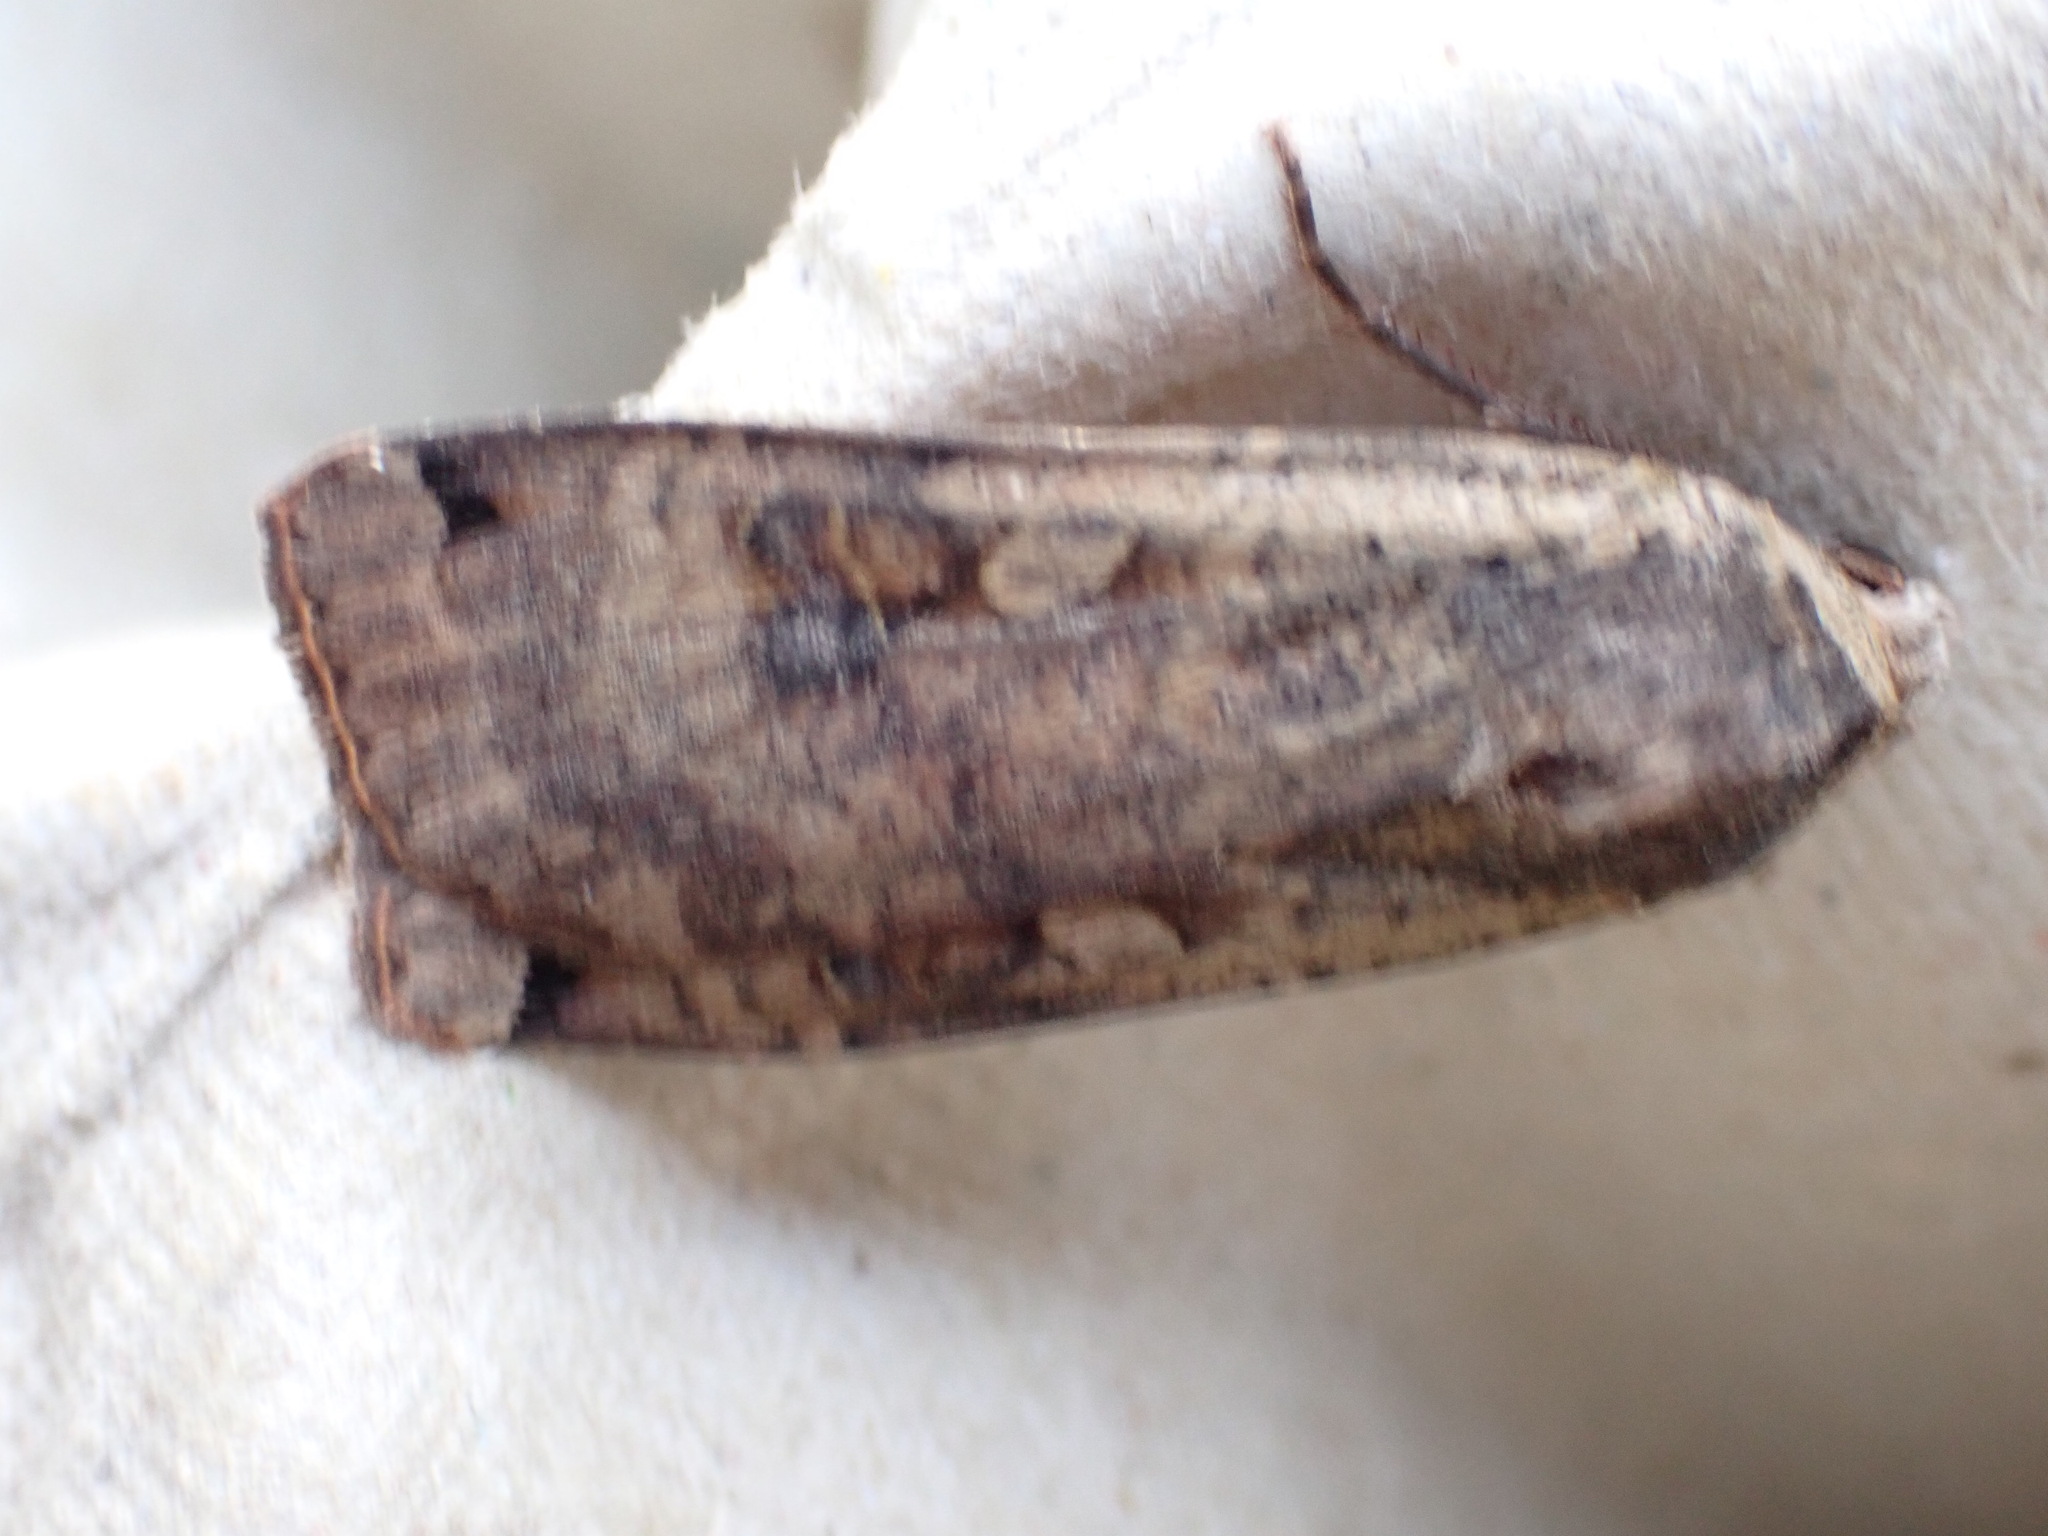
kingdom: Animalia
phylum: Arthropoda
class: Insecta
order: Lepidoptera
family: Noctuidae
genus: Noctua
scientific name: Noctua pronuba
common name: Large yellow underwing
